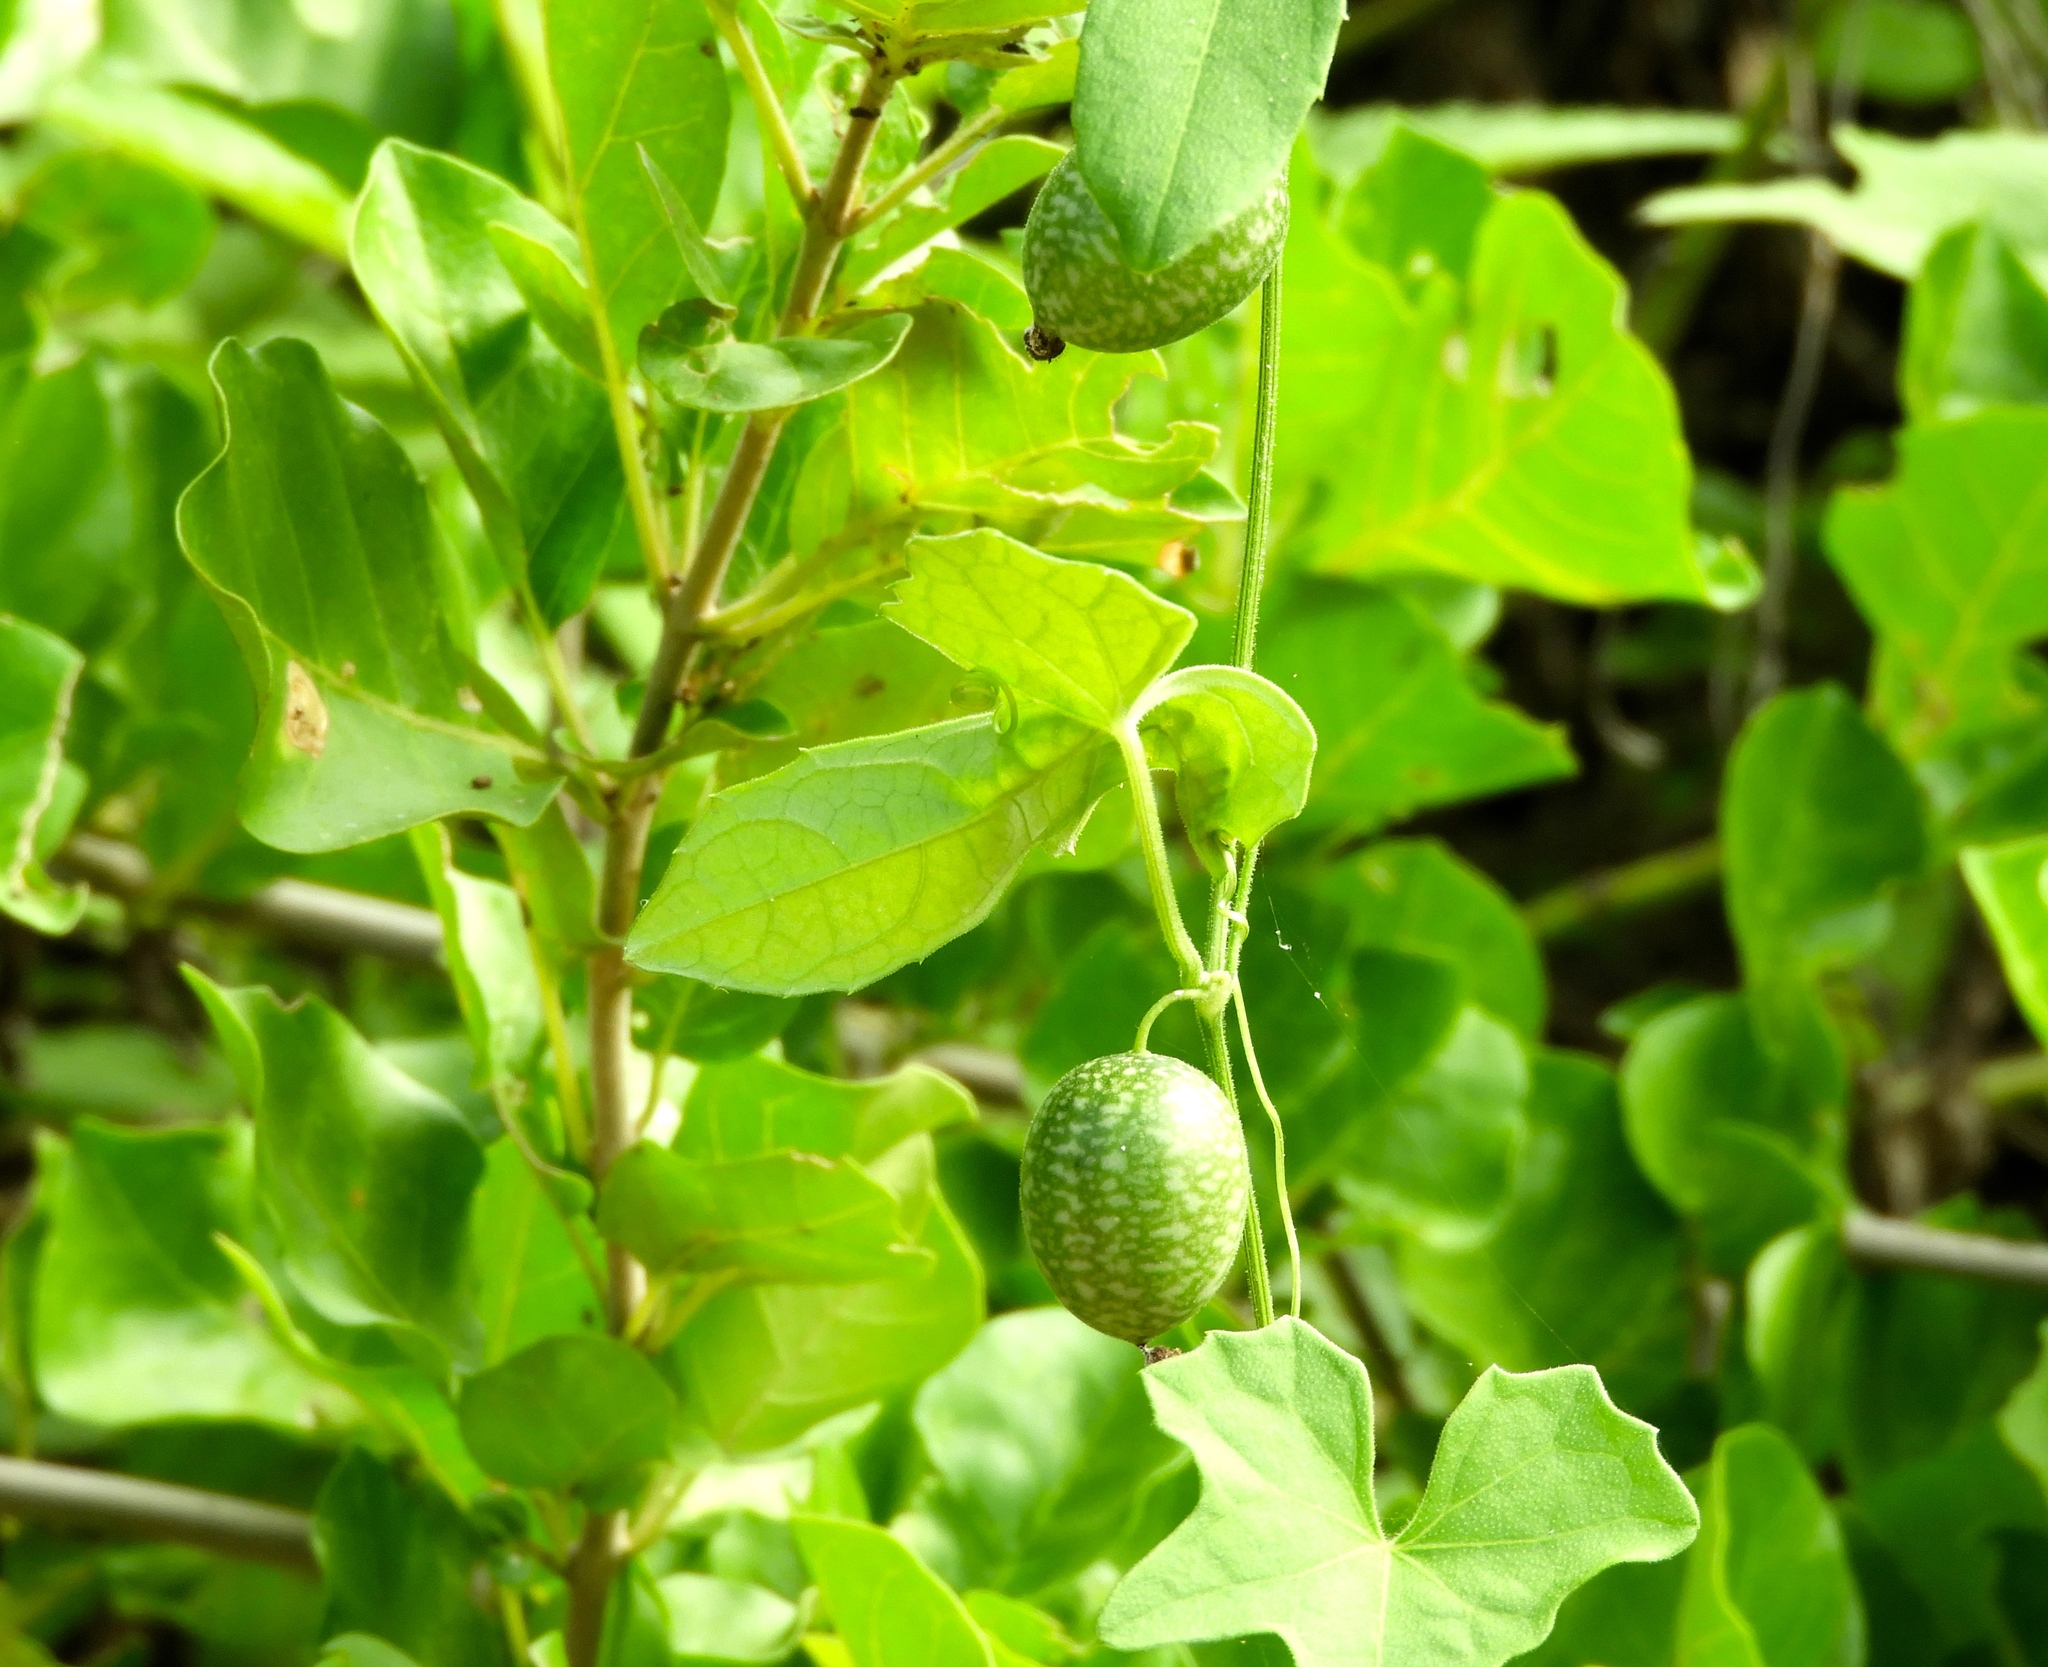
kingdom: Plantae
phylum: Tracheophyta
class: Magnoliopsida
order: Cucurbitales
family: Cucurbitaceae
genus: Melothria
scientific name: Melothria pendula
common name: Creeping-cucumber
